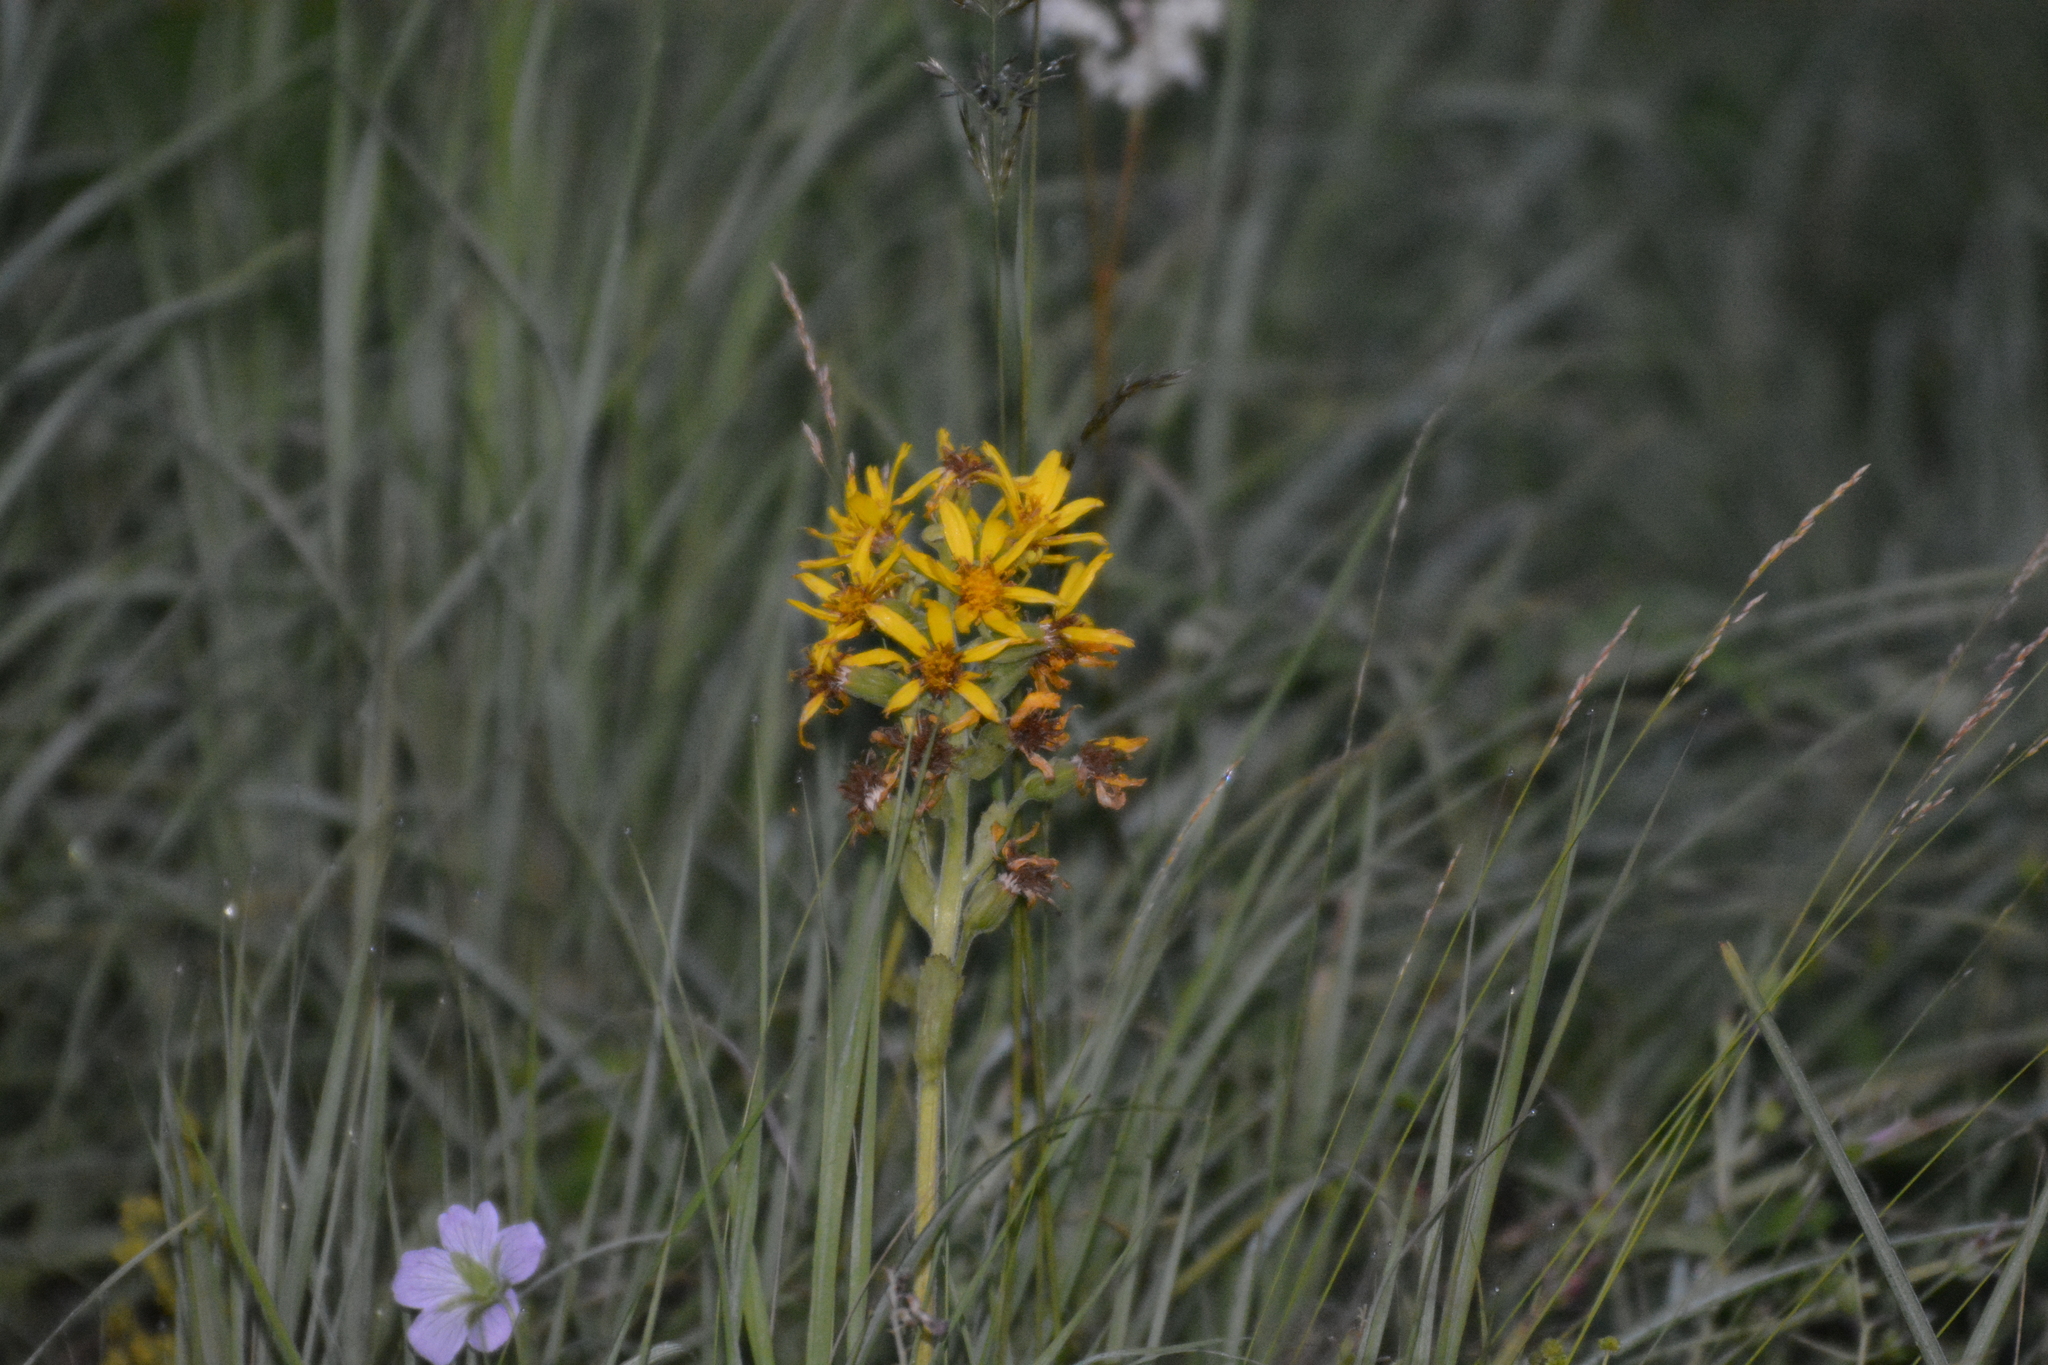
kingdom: Plantae
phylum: Tracheophyta
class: Magnoliopsida
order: Asterales
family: Asteraceae
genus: Ligularia
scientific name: Ligularia fischeri
